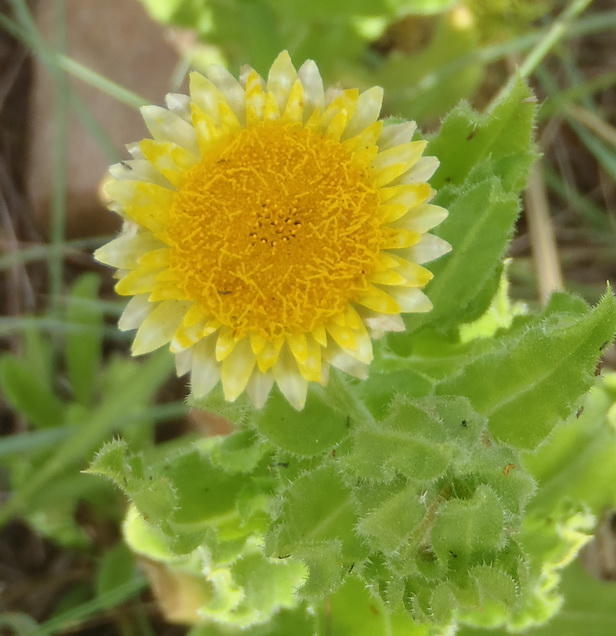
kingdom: Plantae
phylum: Tracheophyta
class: Magnoliopsida
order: Asterales
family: Asteraceae
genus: Helichrysum
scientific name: Helichrysum setosum
